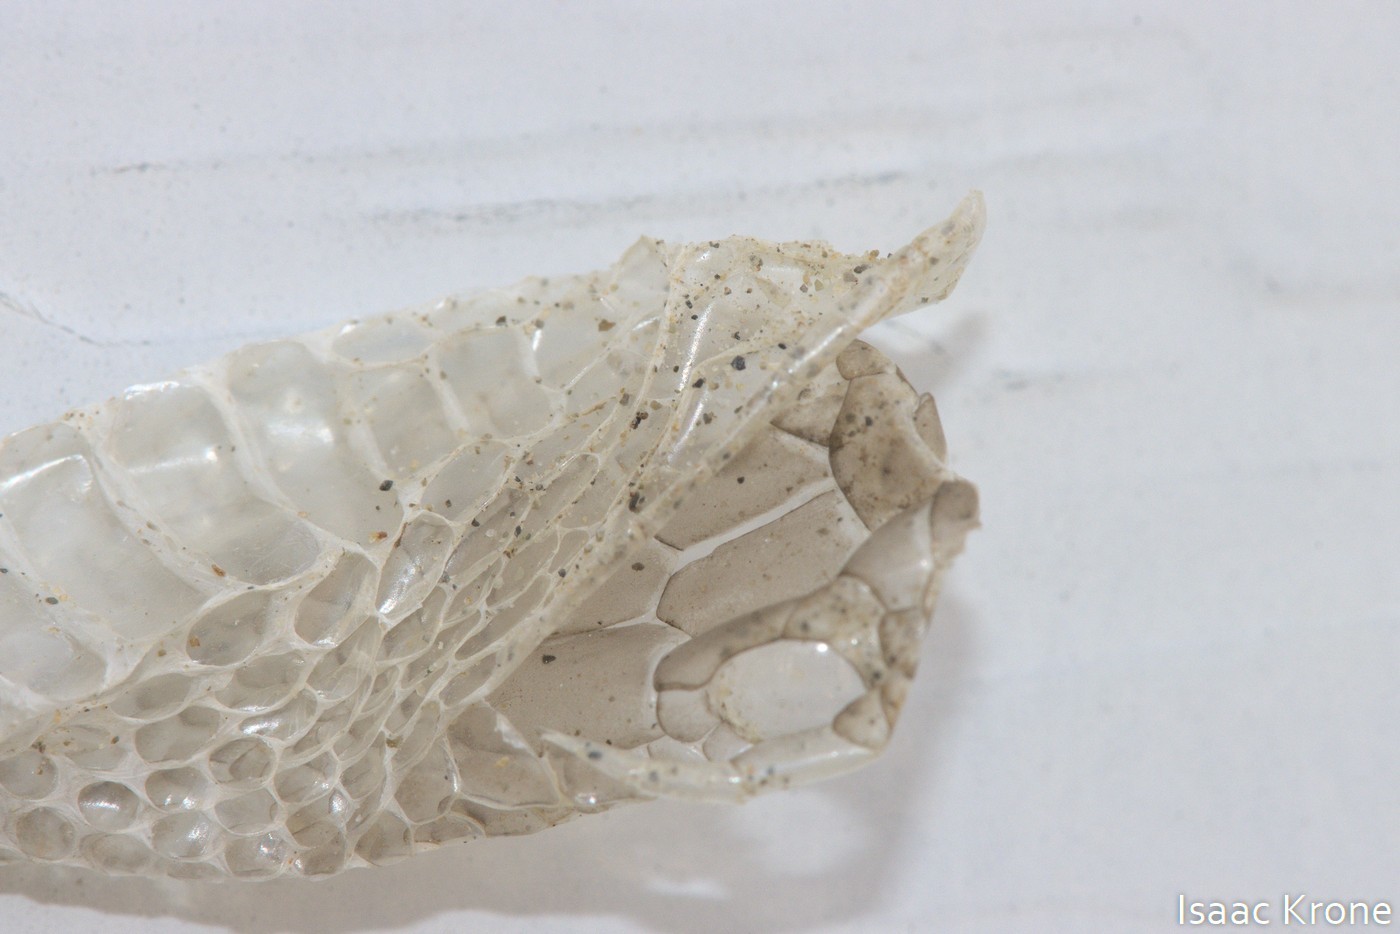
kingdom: Animalia
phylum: Chordata
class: Squamata
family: Colubridae
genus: Coluber
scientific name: Coluber constrictor
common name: Eastern racer
